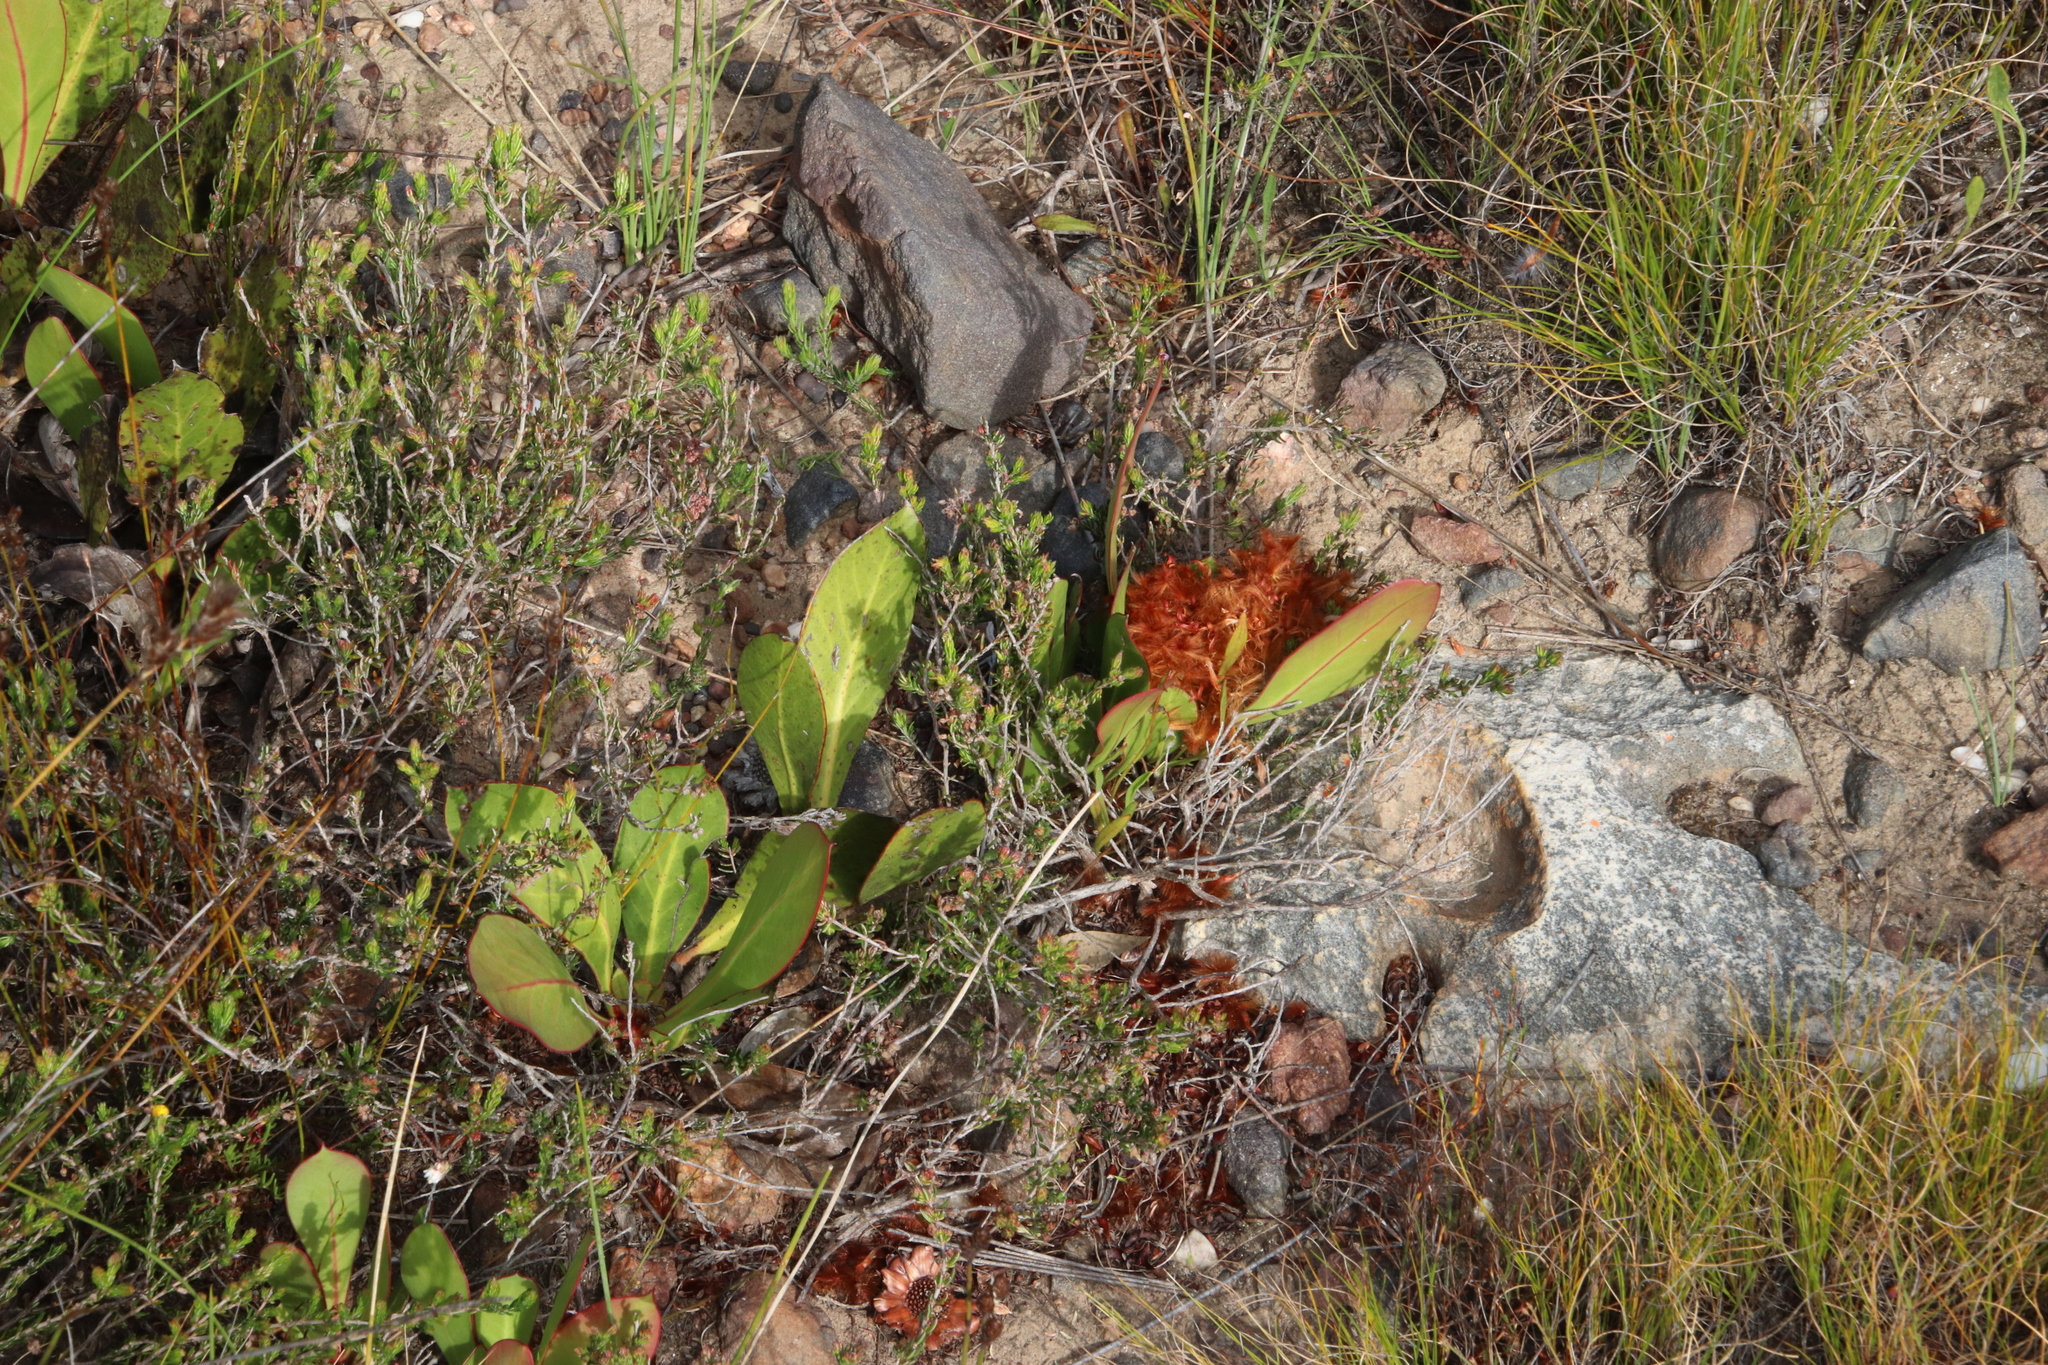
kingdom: Plantae
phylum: Tracheophyta
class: Magnoliopsida
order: Proteales
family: Proteaceae
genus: Protea
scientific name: Protea acaulos
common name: Common ground sugarbush
